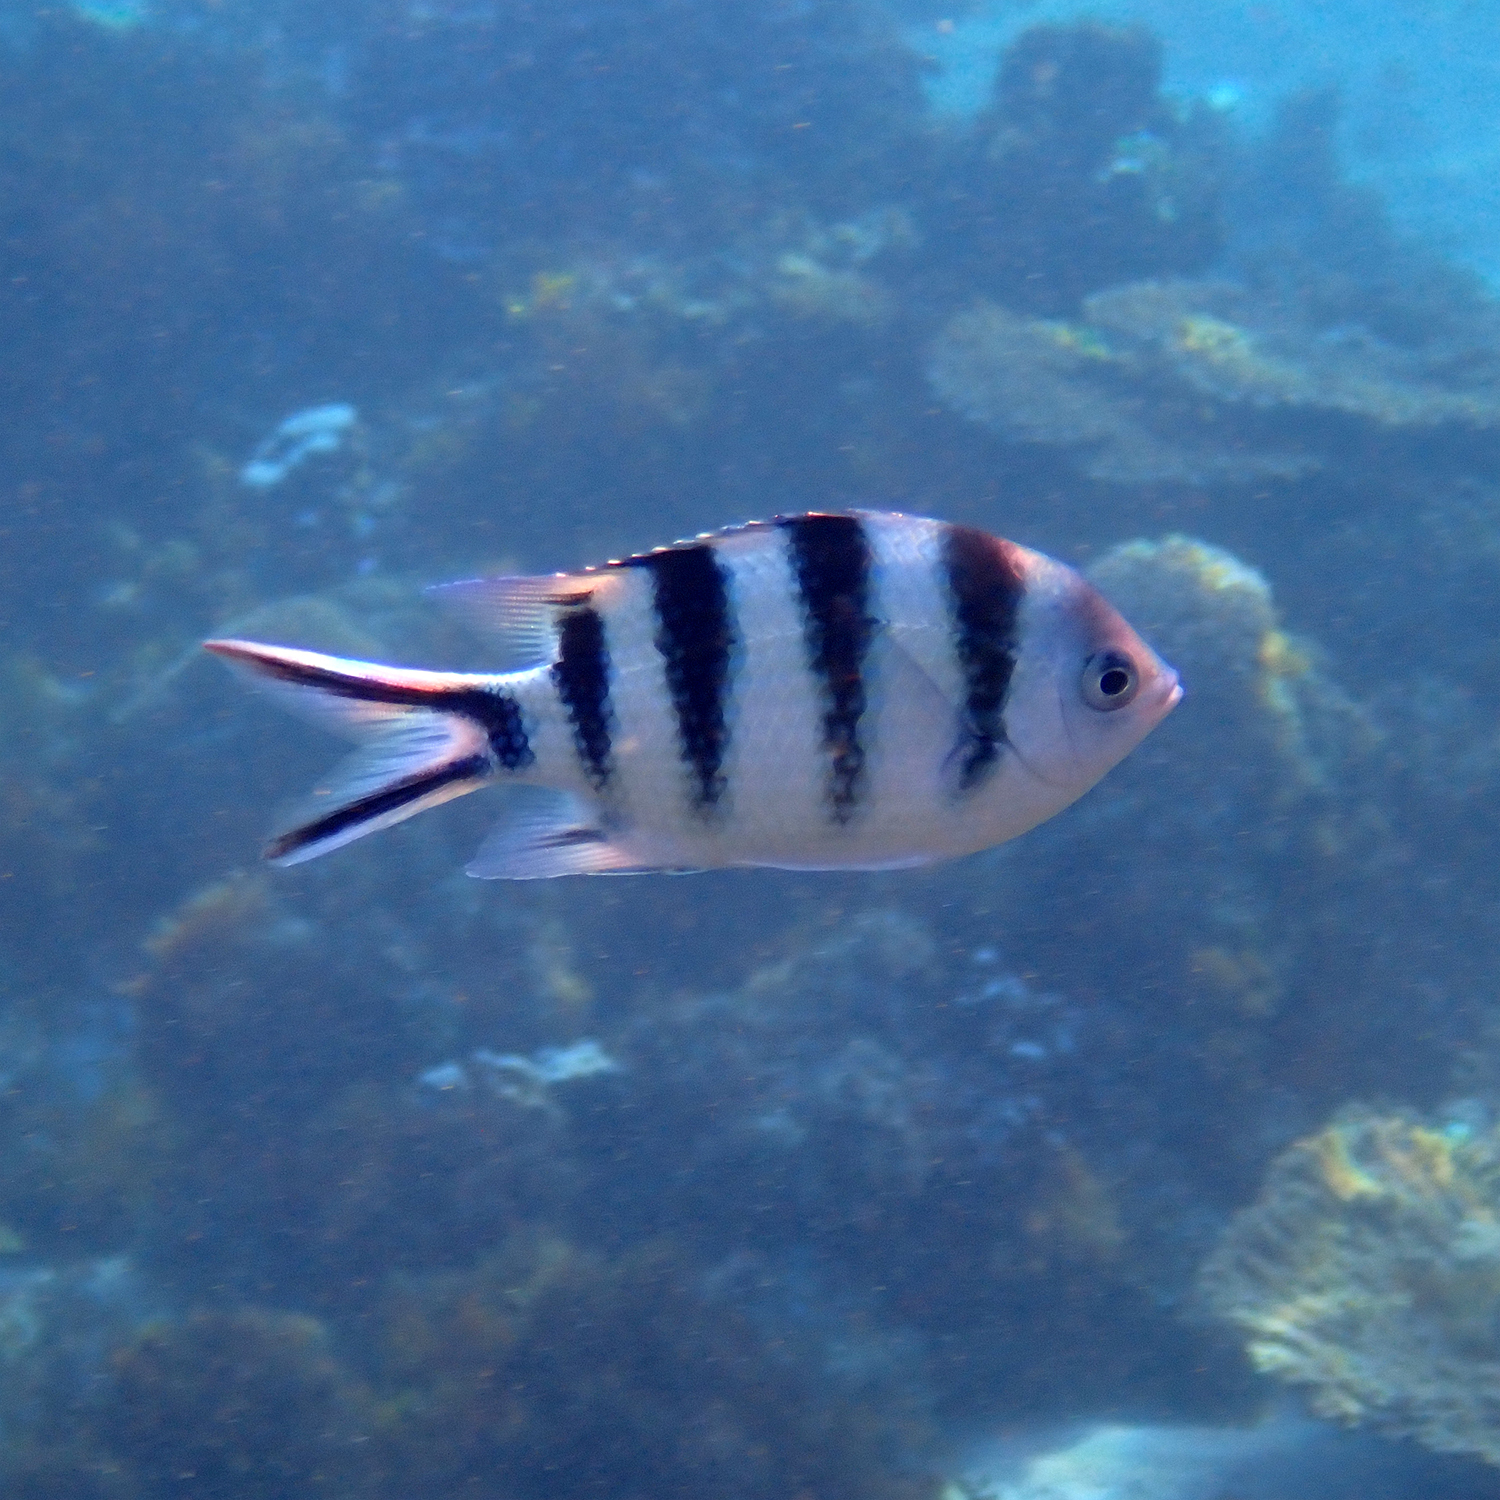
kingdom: Animalia
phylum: Chordata
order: Perciformes
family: Pomacentridae
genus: Abudefduf
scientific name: Abudefduf sexfasciatus
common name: Scissortail sergeant
